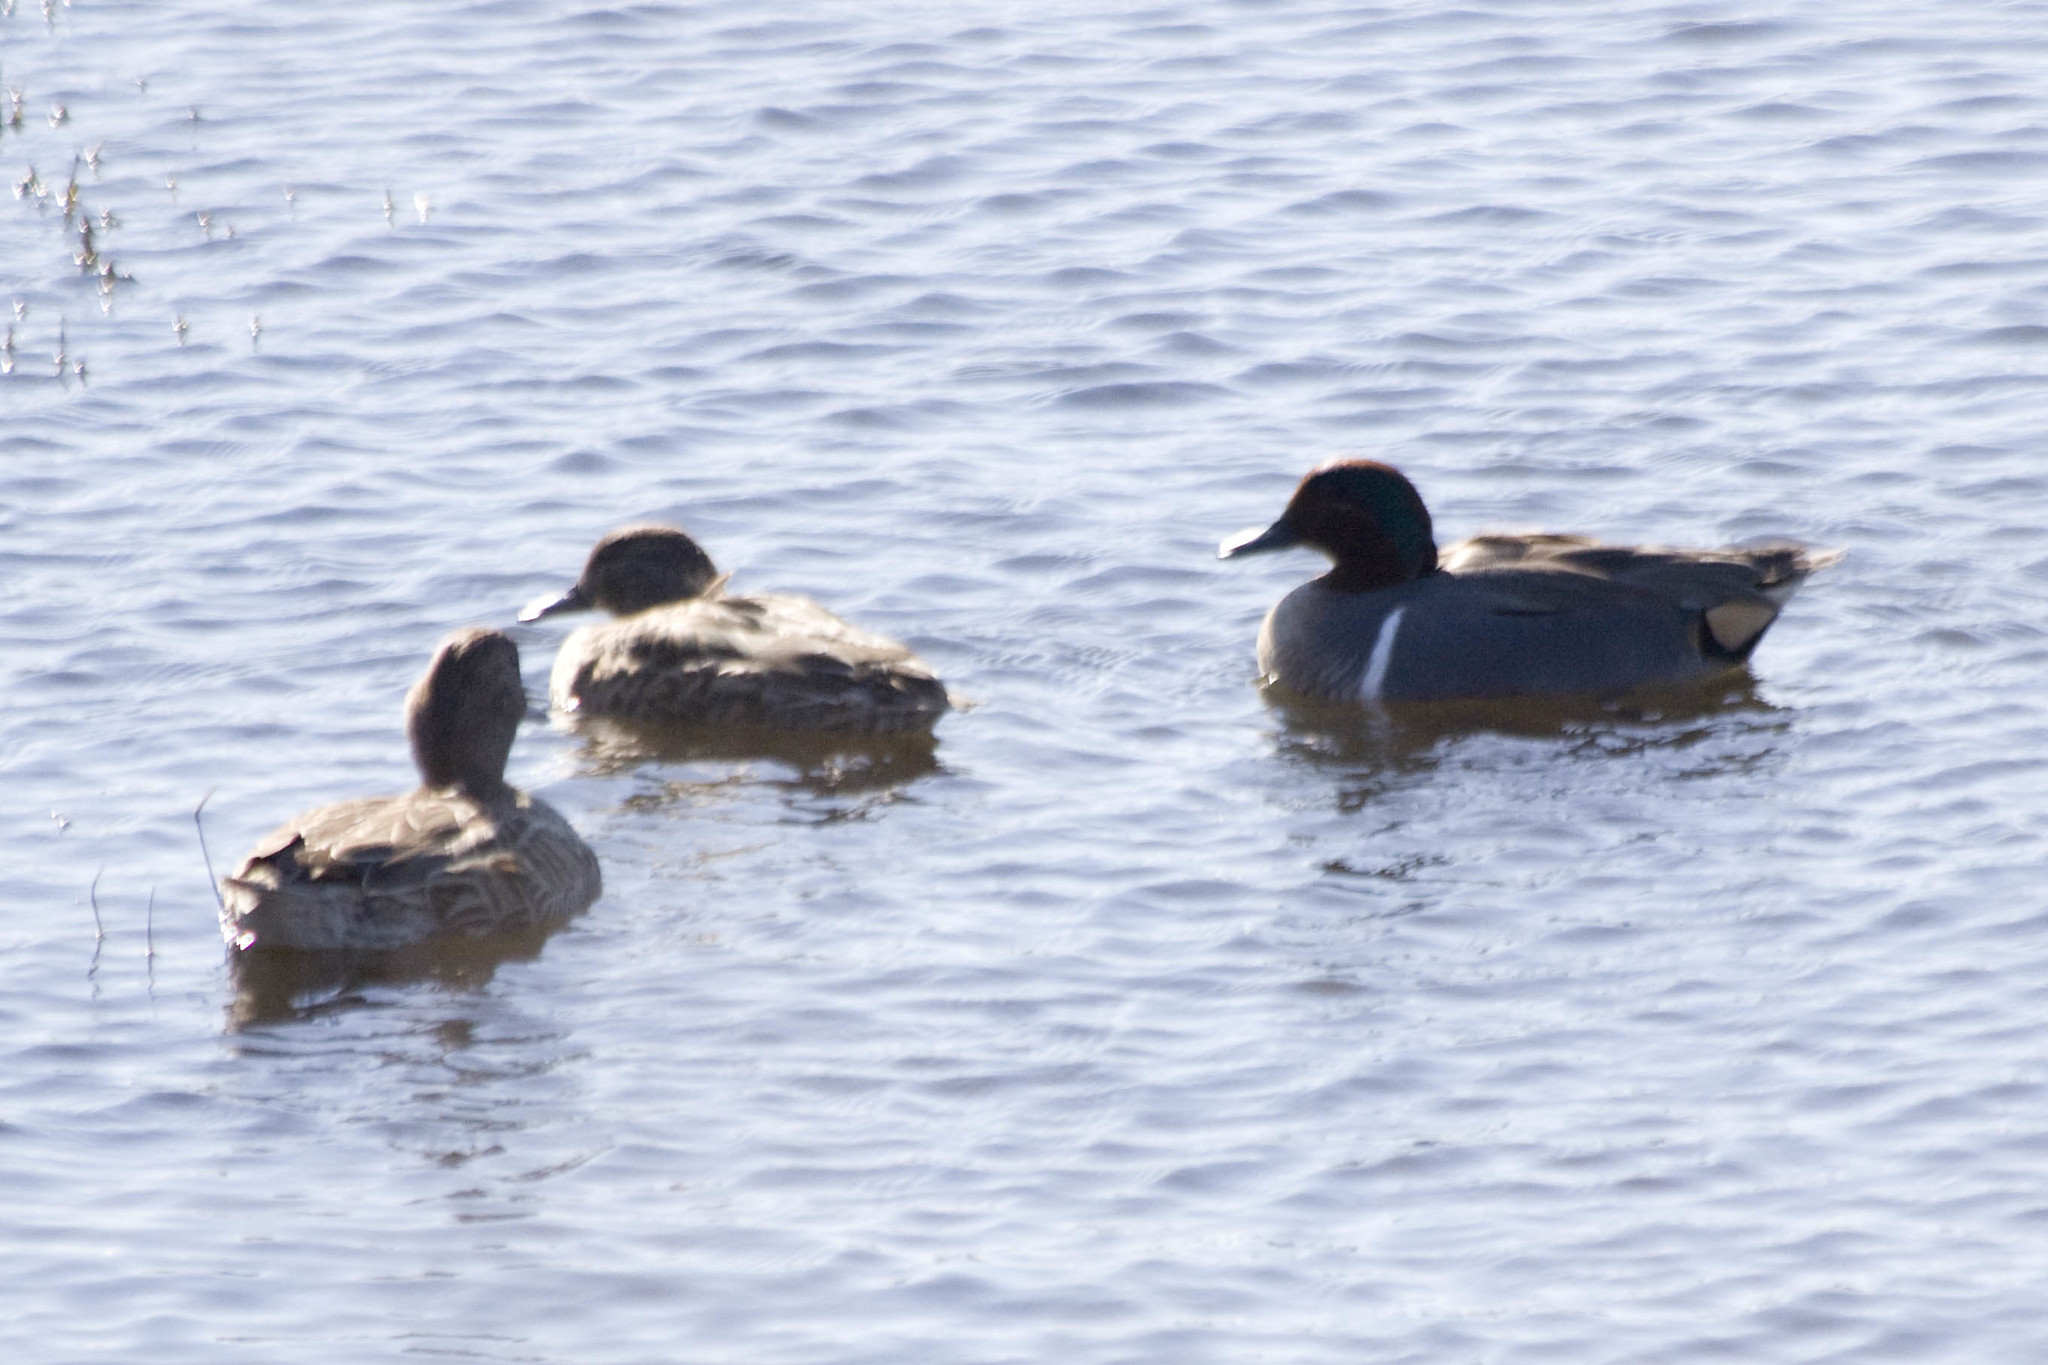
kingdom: Animalia
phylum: Chordata
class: Aves
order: Anseriformes
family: Anatidae
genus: Anas
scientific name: Anas crecca
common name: Eurasian teal
